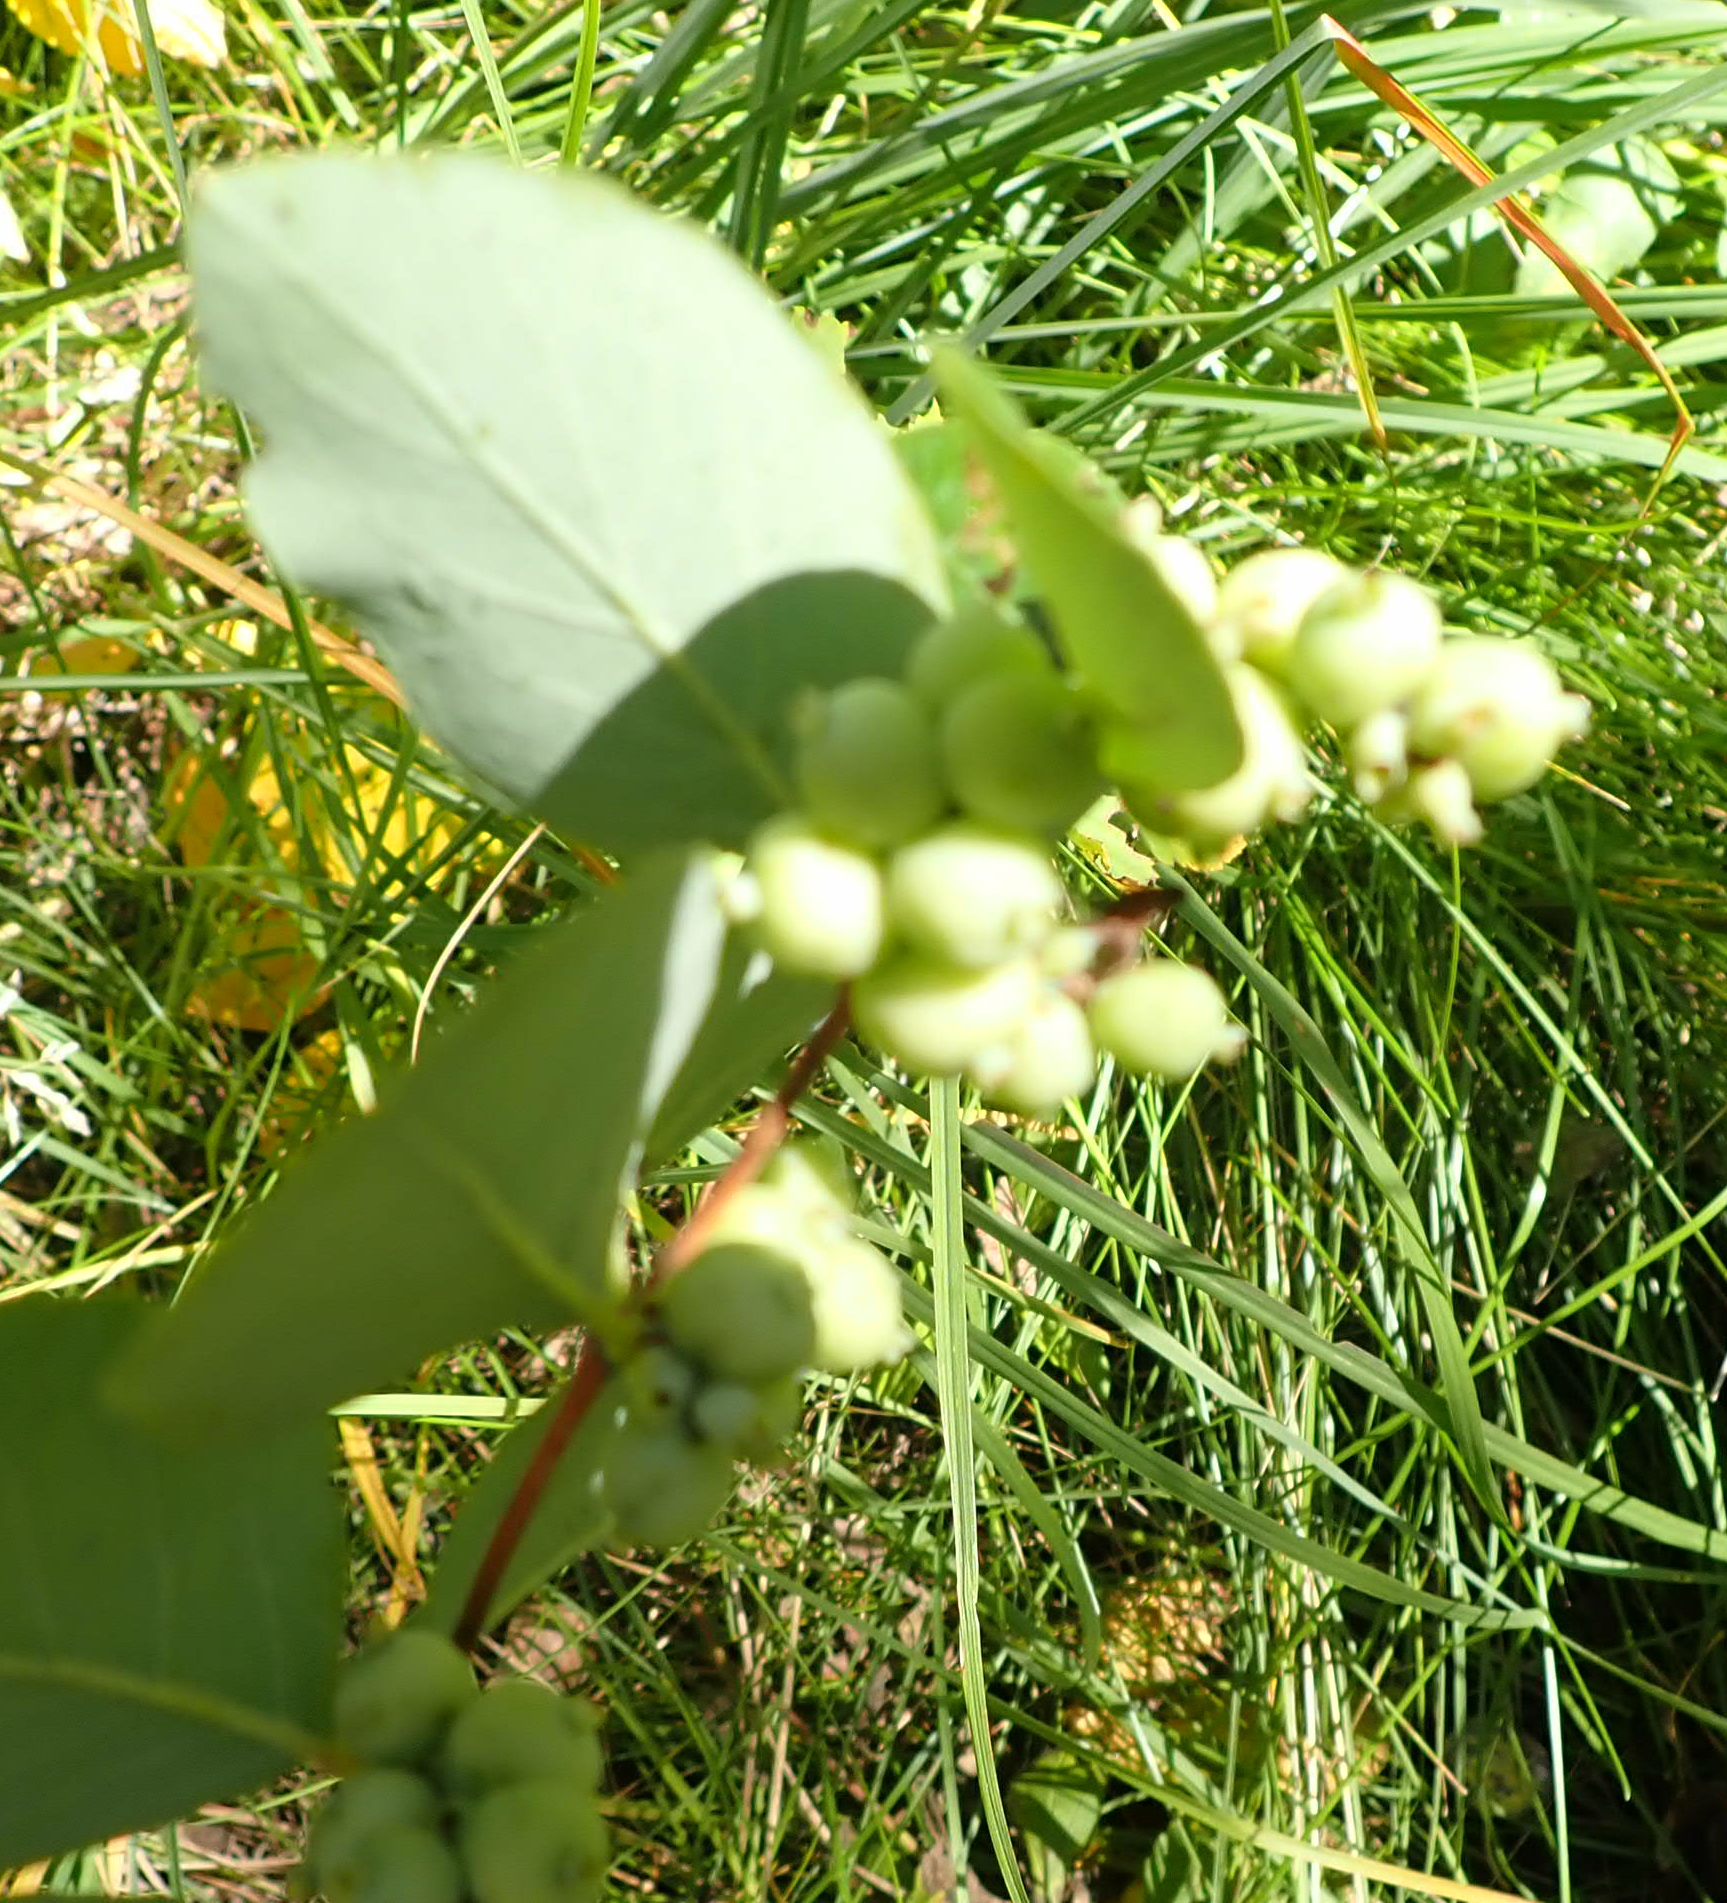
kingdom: Plantae
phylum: Tracheophyta
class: Magnoliopsida
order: Dipsacales
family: Caprifoliaceae
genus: Symphoricarpos
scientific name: Symphoricarpos occidentalis
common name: Wolfberry
